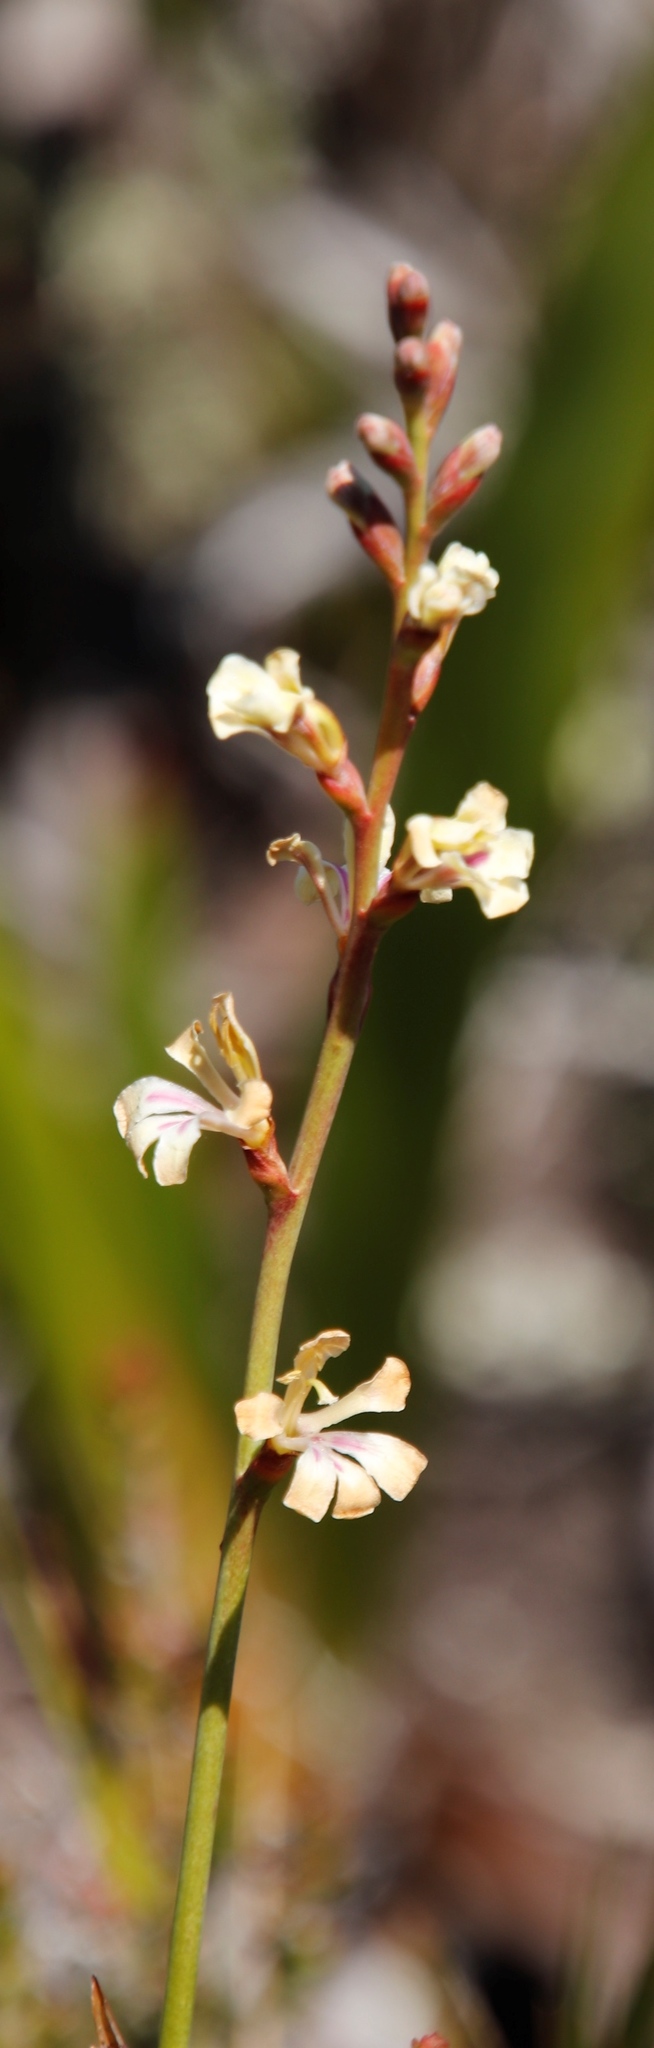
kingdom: Plantae
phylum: Tracheophyta
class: Liliopsida
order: Asparagales
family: Iridaceae
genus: Tritoniopsis
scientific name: Tritoniopsis unguicularis
